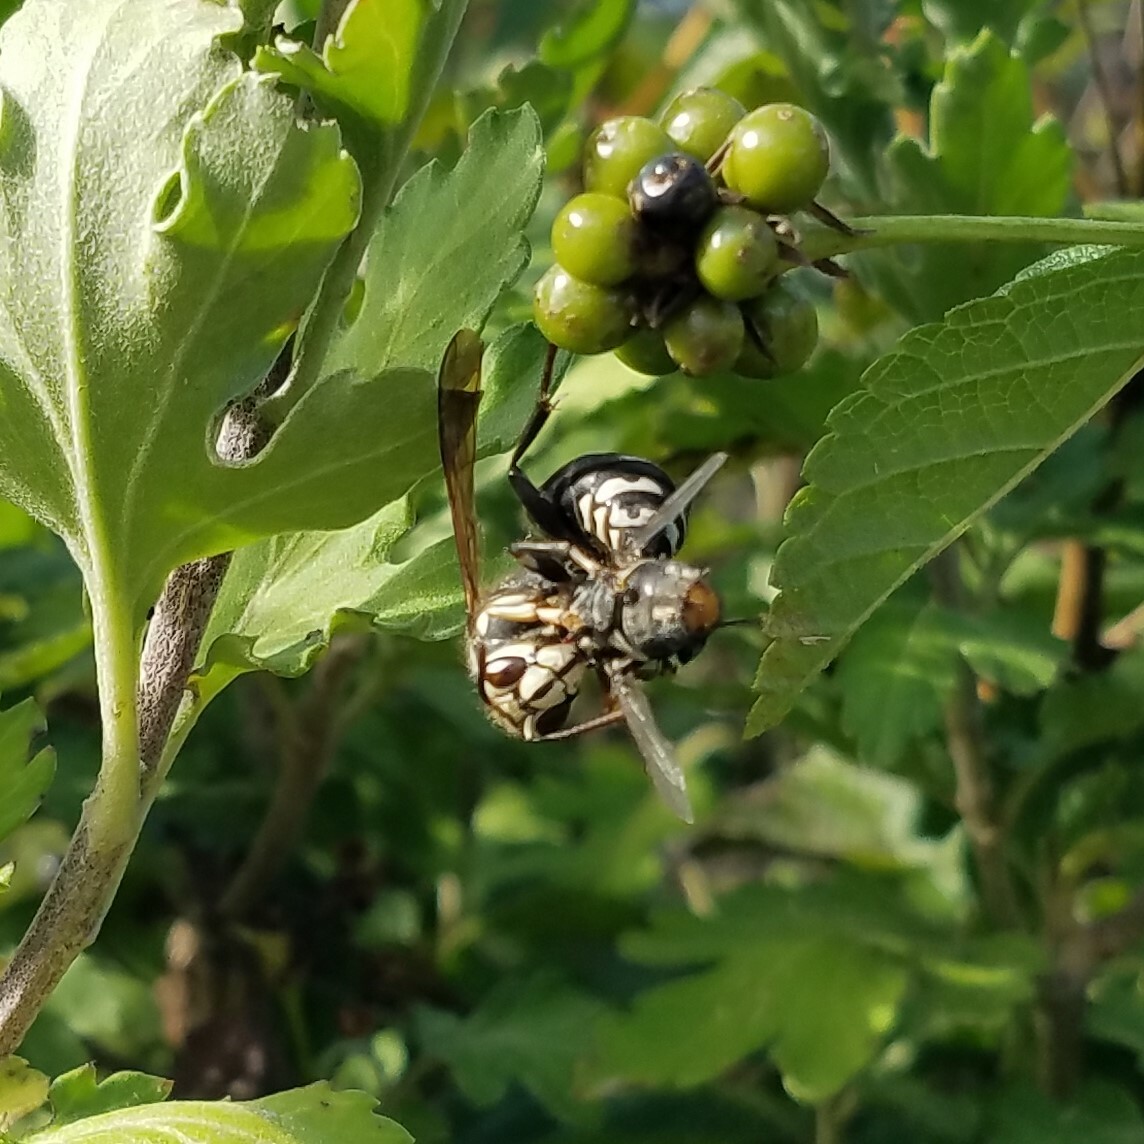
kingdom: Animalia
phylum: Arthropoda
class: Insecta
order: Hymenoptera
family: Vespidae
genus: Dolichovespula
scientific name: Dolichovespula maculata
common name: Bald-faced hornet
